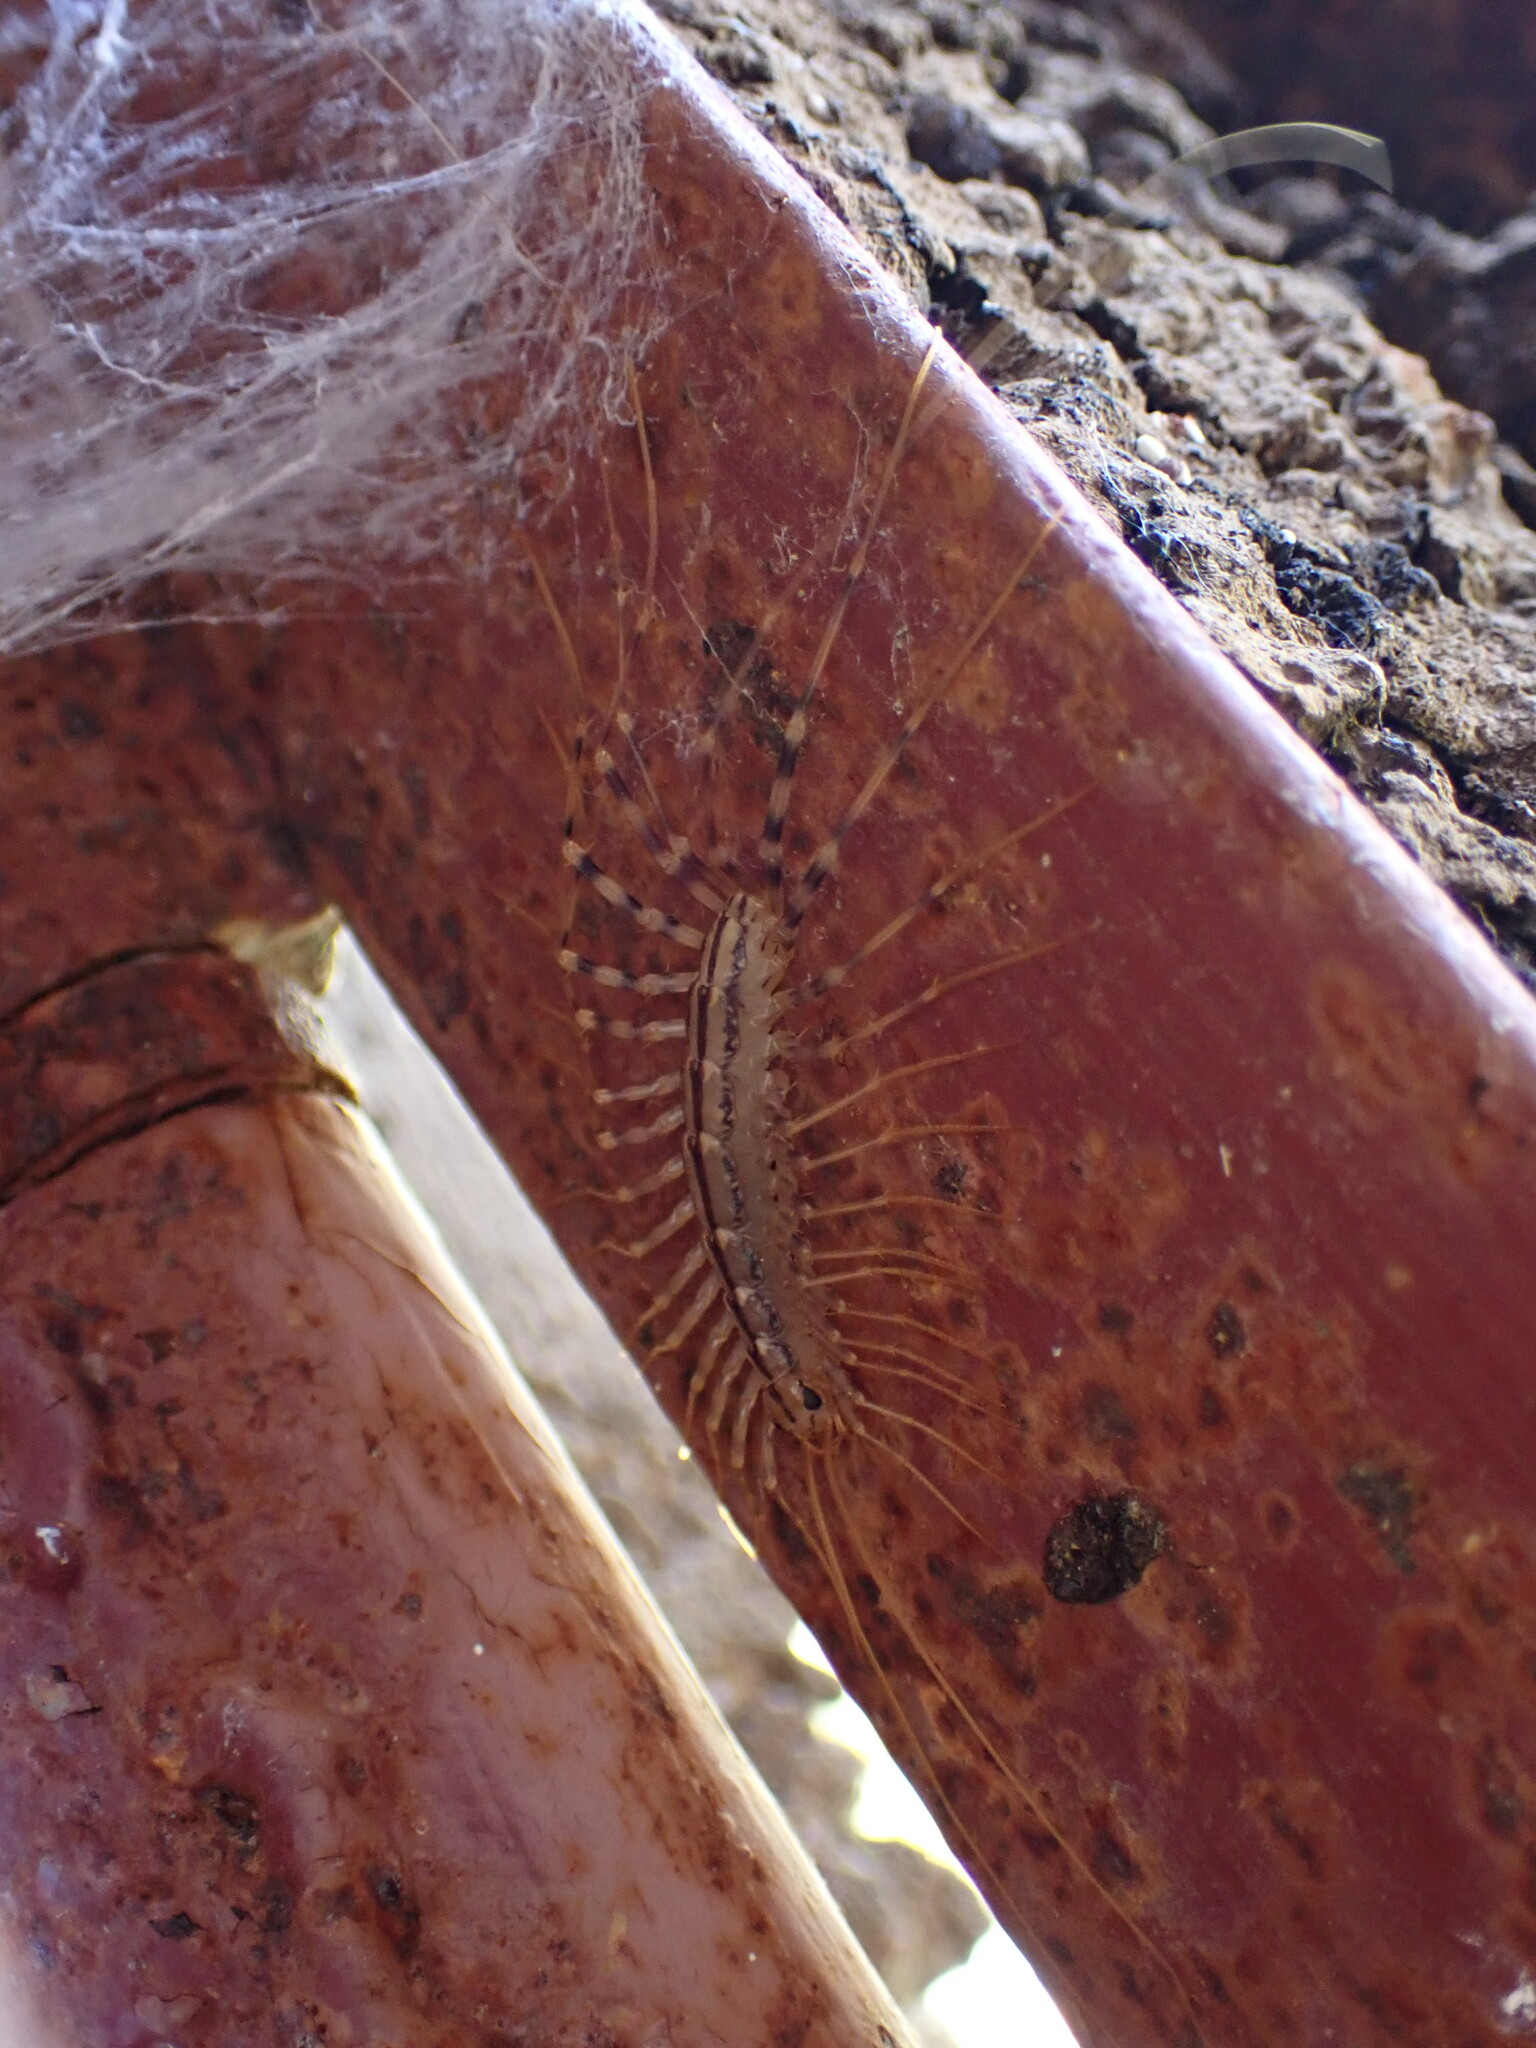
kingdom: Animalia
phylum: Arthropoda
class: Chilopoda
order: Scutigeromorpha
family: Scutigeridae
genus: Scutigera
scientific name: Scutigera coleoptrata
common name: House centipede
